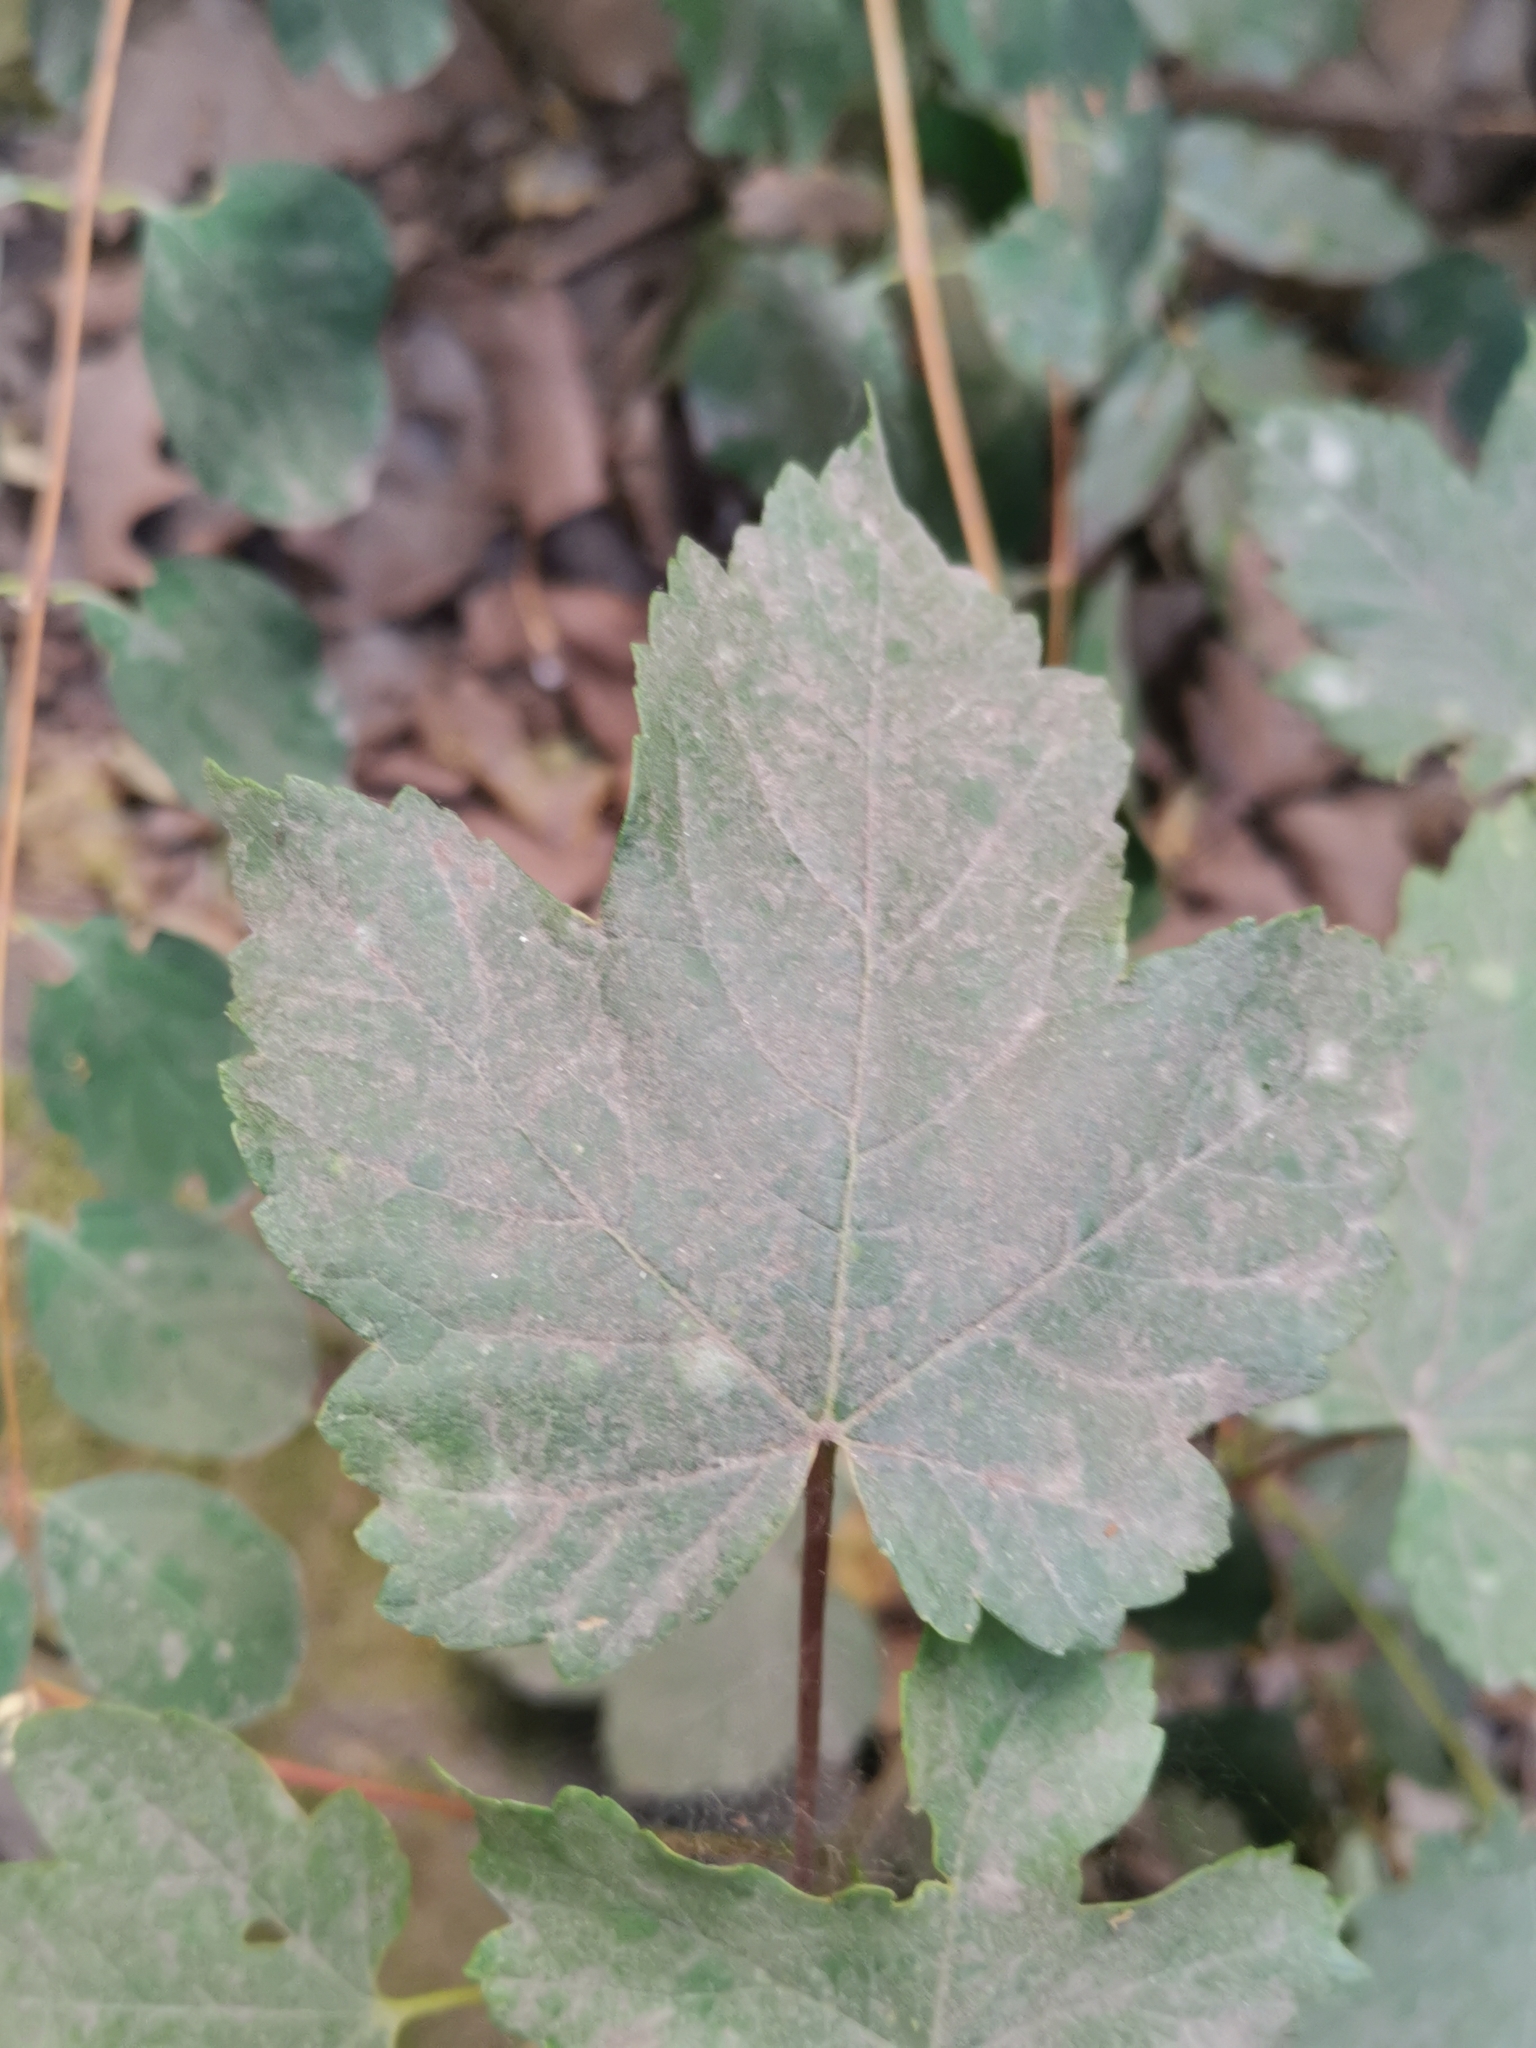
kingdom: Plantae
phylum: Tracheophyta
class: Magnoliopsida
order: Sapindales
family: Sapindaceae
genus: Acer
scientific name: Acer pseudoplatanus
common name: Sycamore
